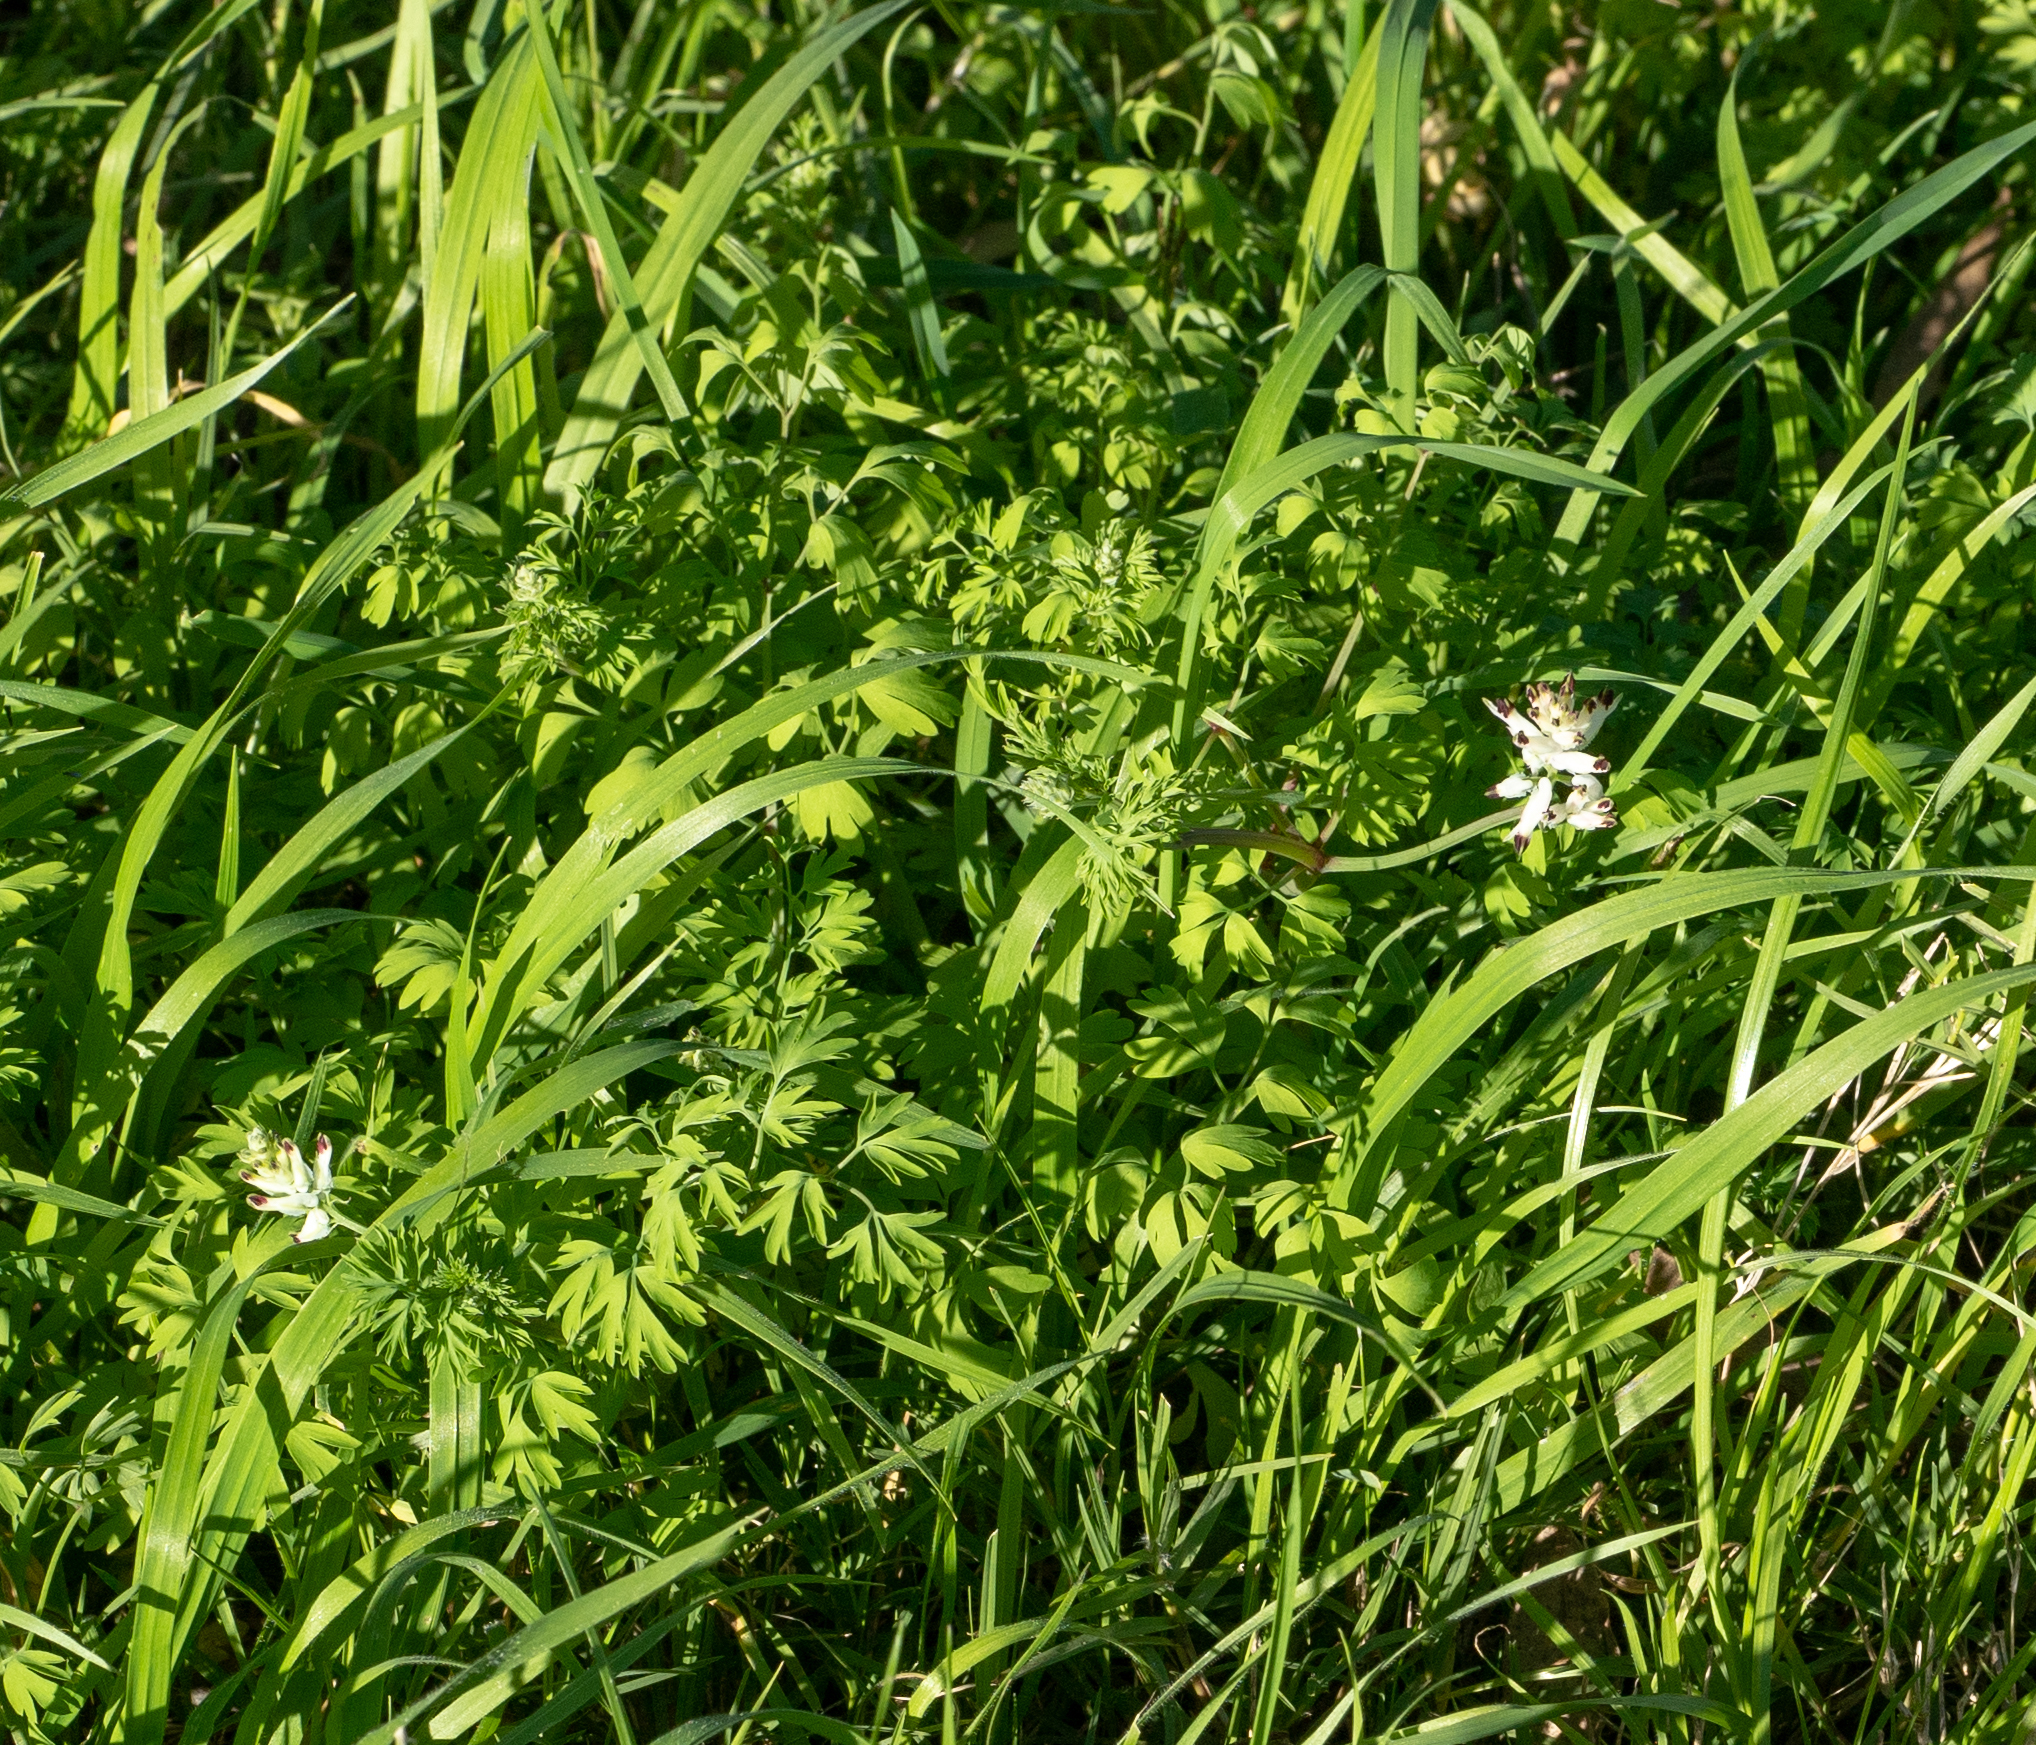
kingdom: Plantae
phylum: Tracheophyta
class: Magnoliopsida
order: Ranunculales
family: Papaveraceae
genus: Fumaria
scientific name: Fumaria capreolata
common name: White ramping-fumitory
